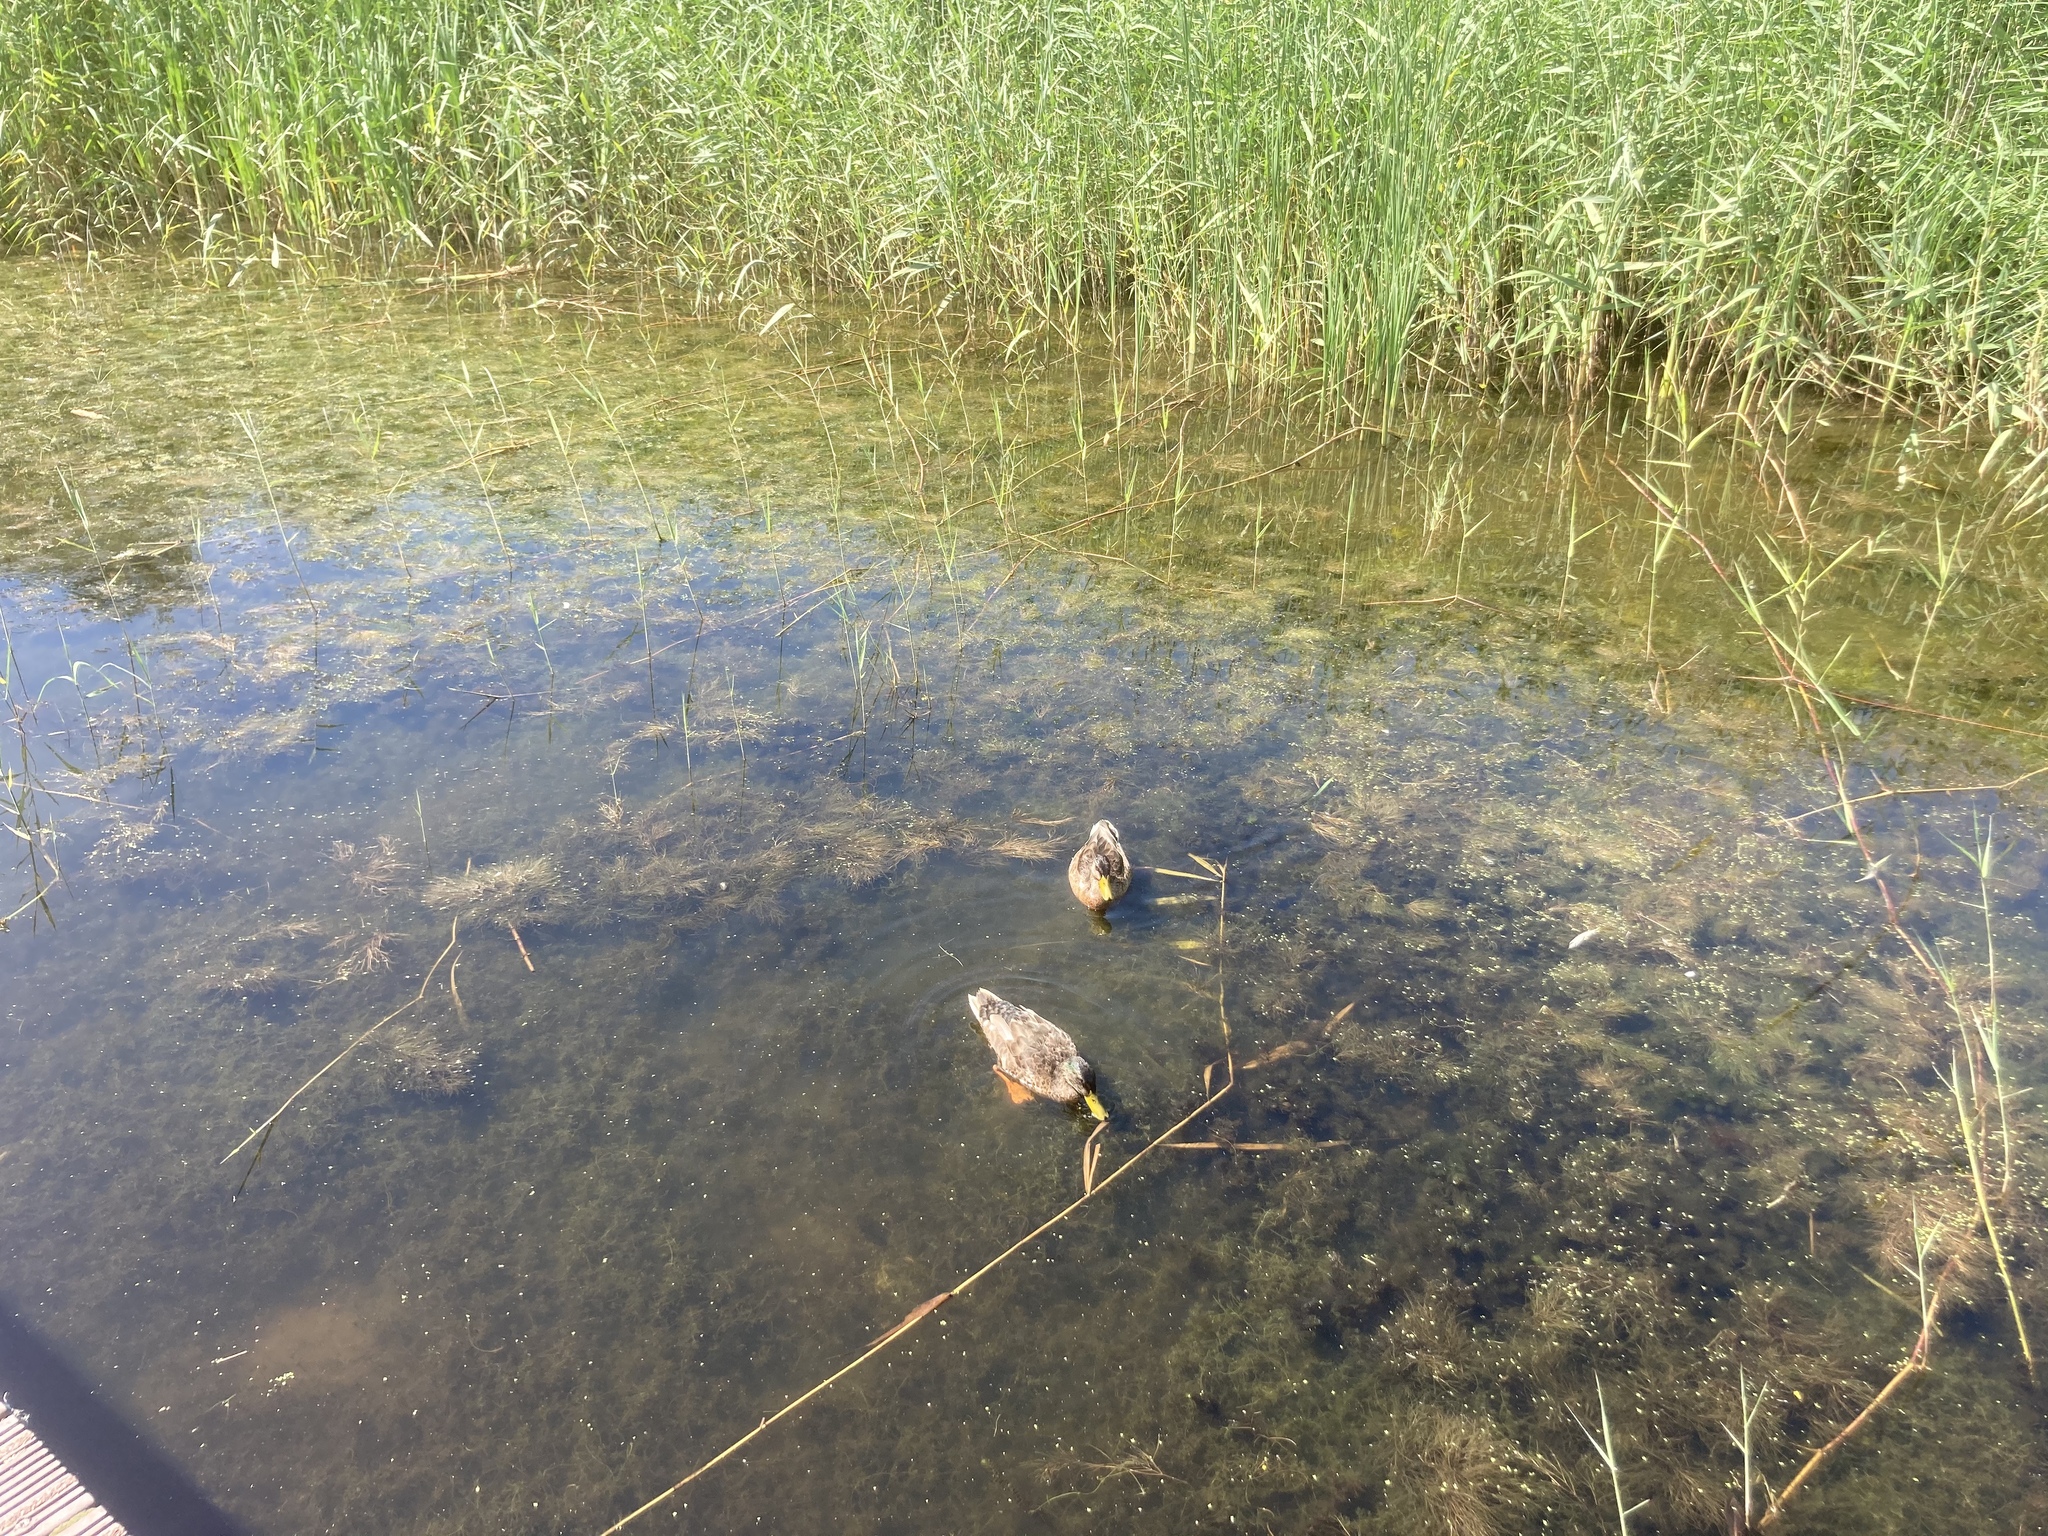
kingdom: Animalia
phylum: Chordata
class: Aves
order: Anseriformes
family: Anatidae
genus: Anas
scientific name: Anas platyrhynchos
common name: Mallard
